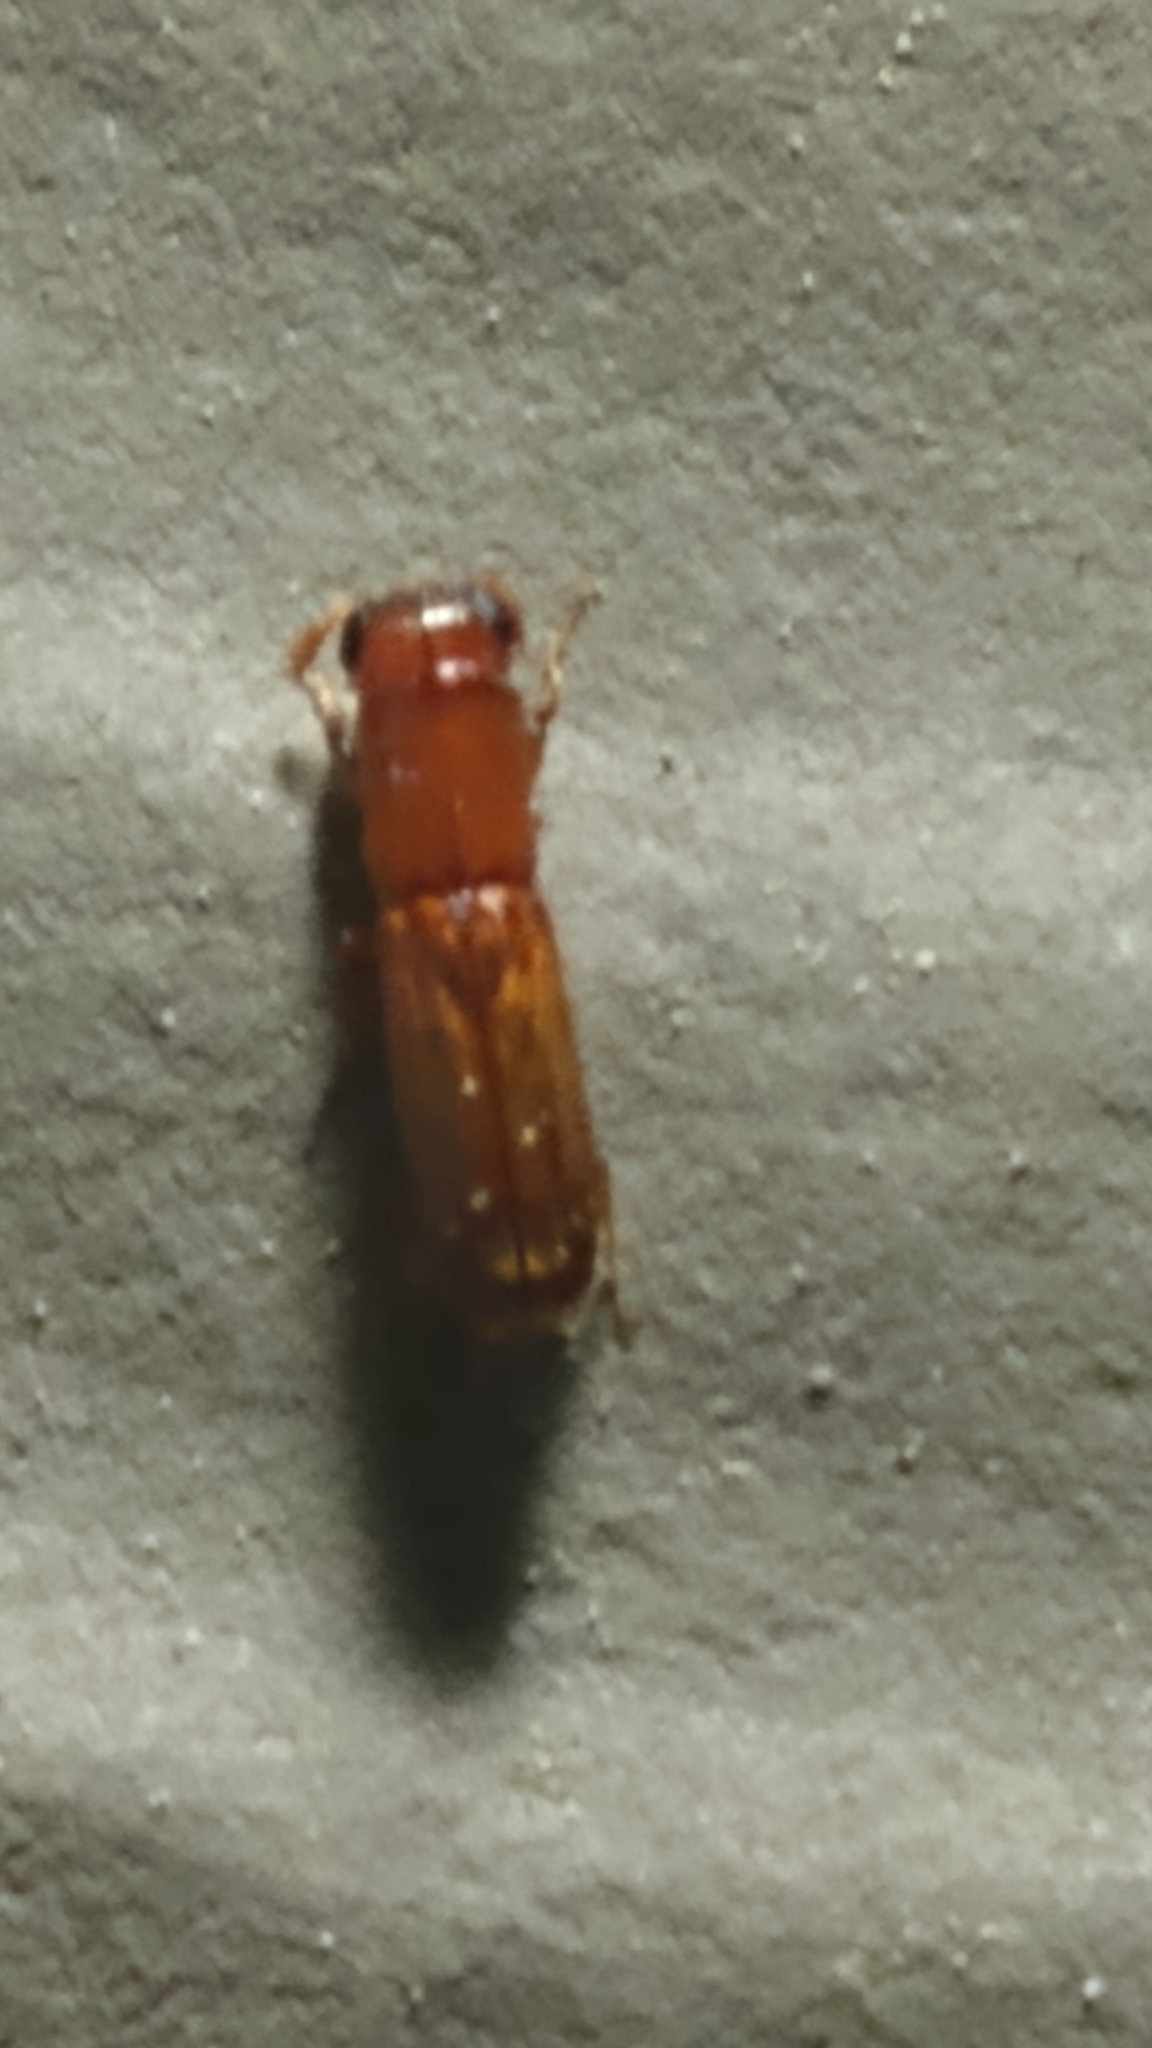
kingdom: Animalia
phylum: Arthropoda
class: Insecta
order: Coleoptera
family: Curculionidae
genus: Euplatypus
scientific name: Euplatypus compositus
